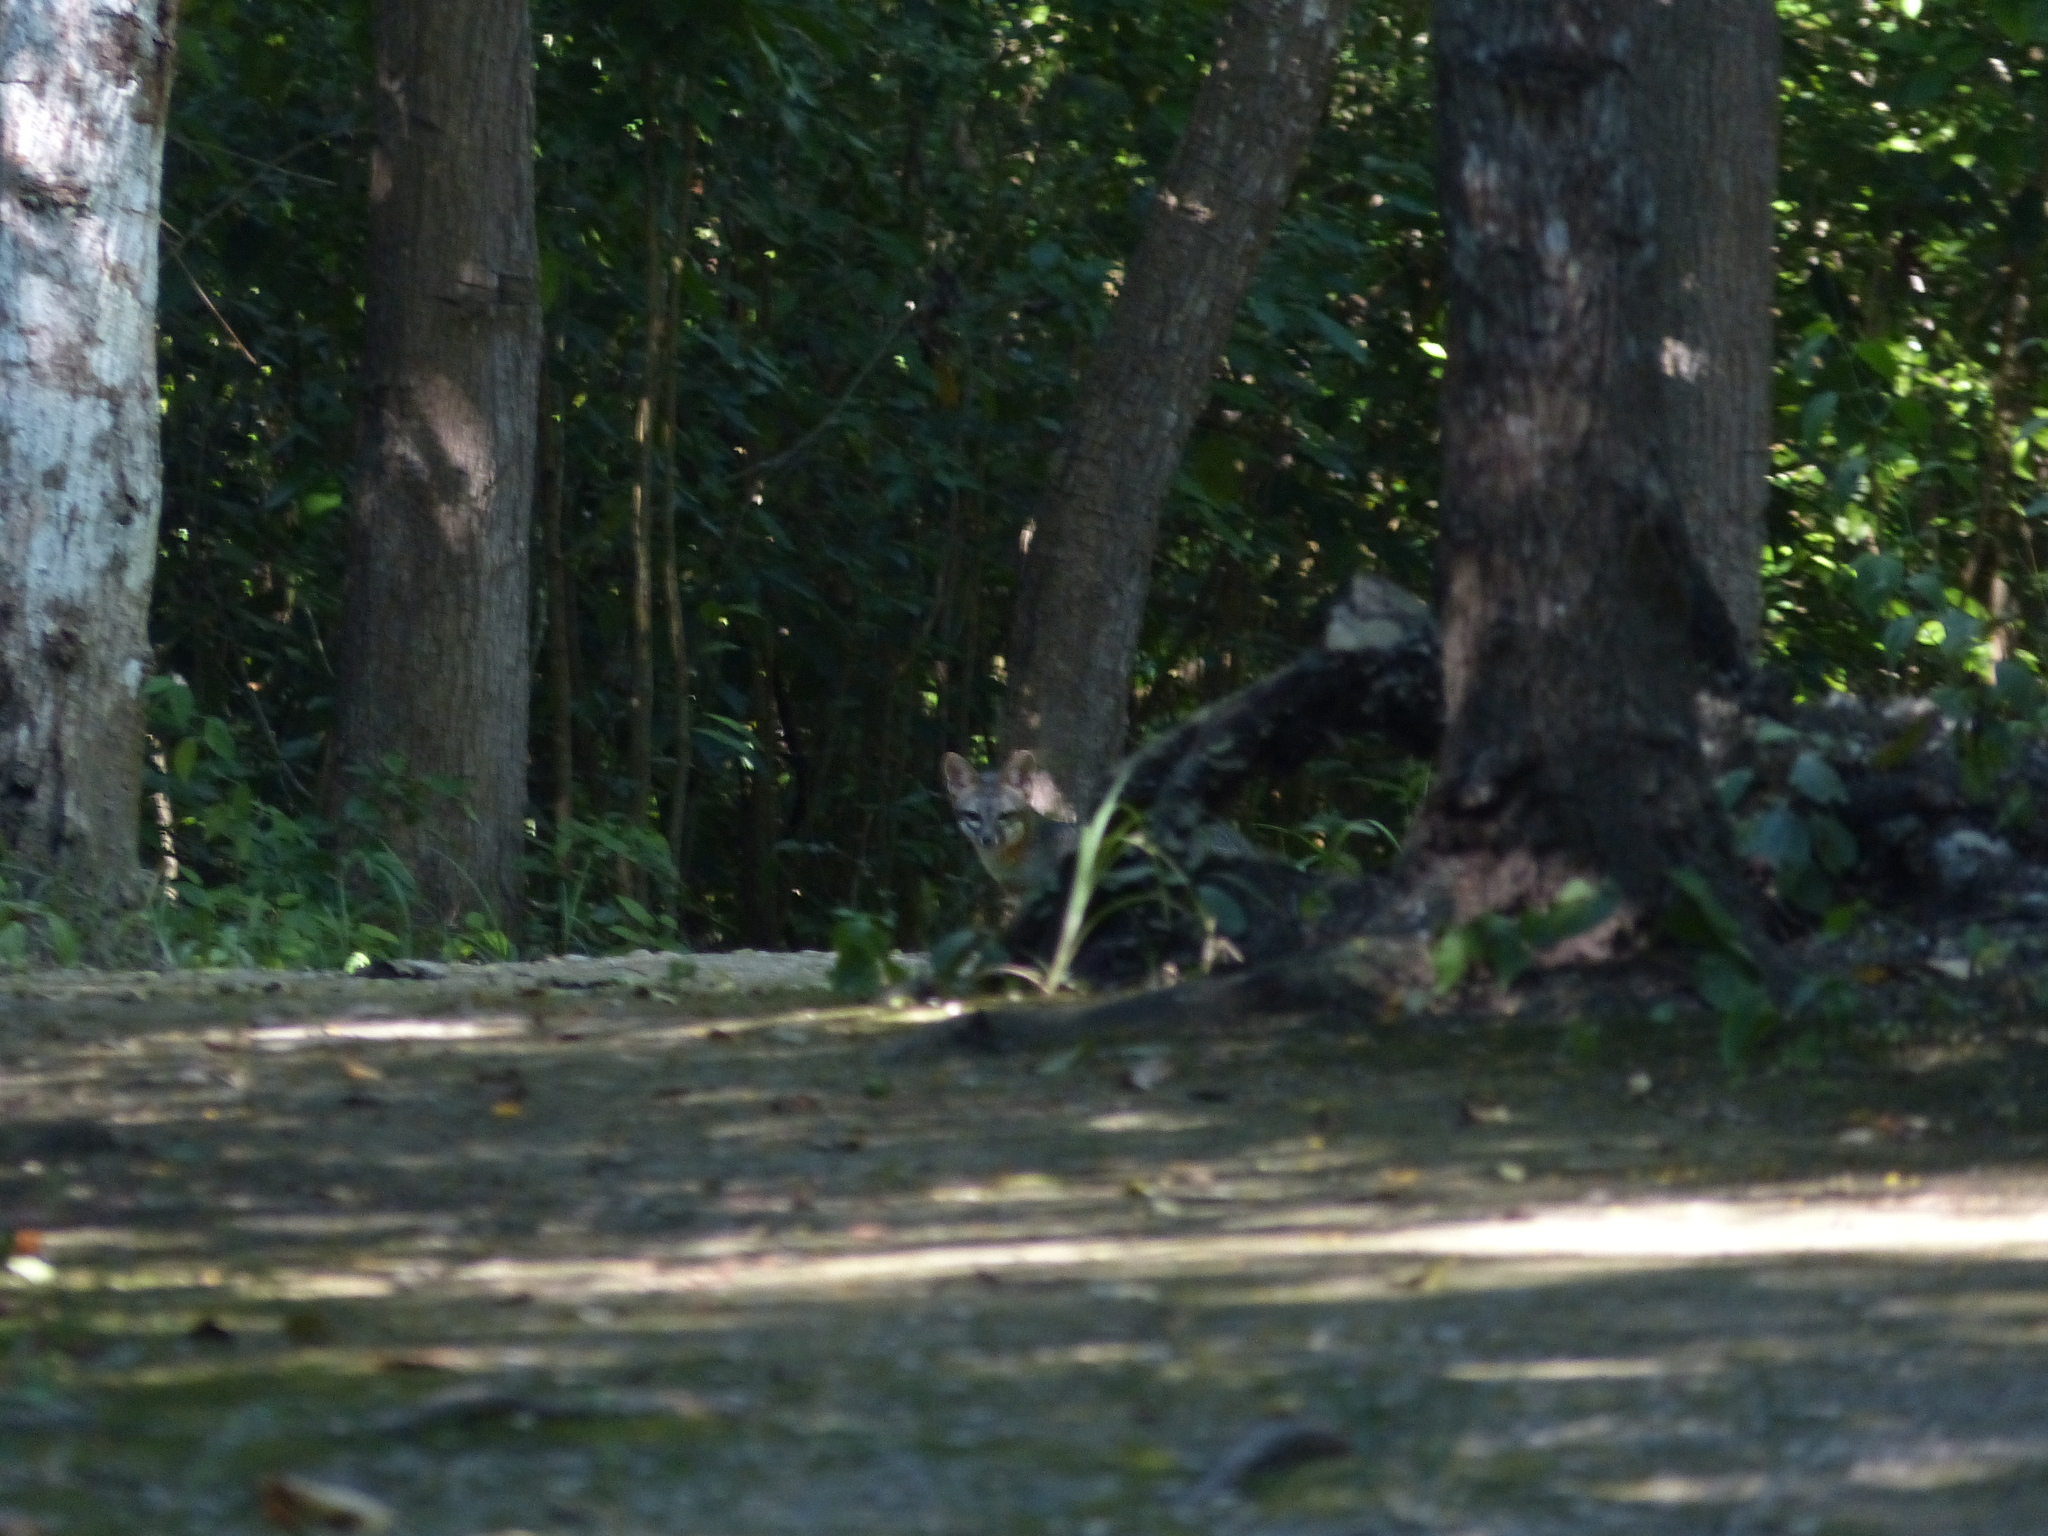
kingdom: Animalia
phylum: Chordata
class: Mammalia
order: Carnivora
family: Canidae
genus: Urocyon
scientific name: Urocyon cinereoargenteus
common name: Gray fox
